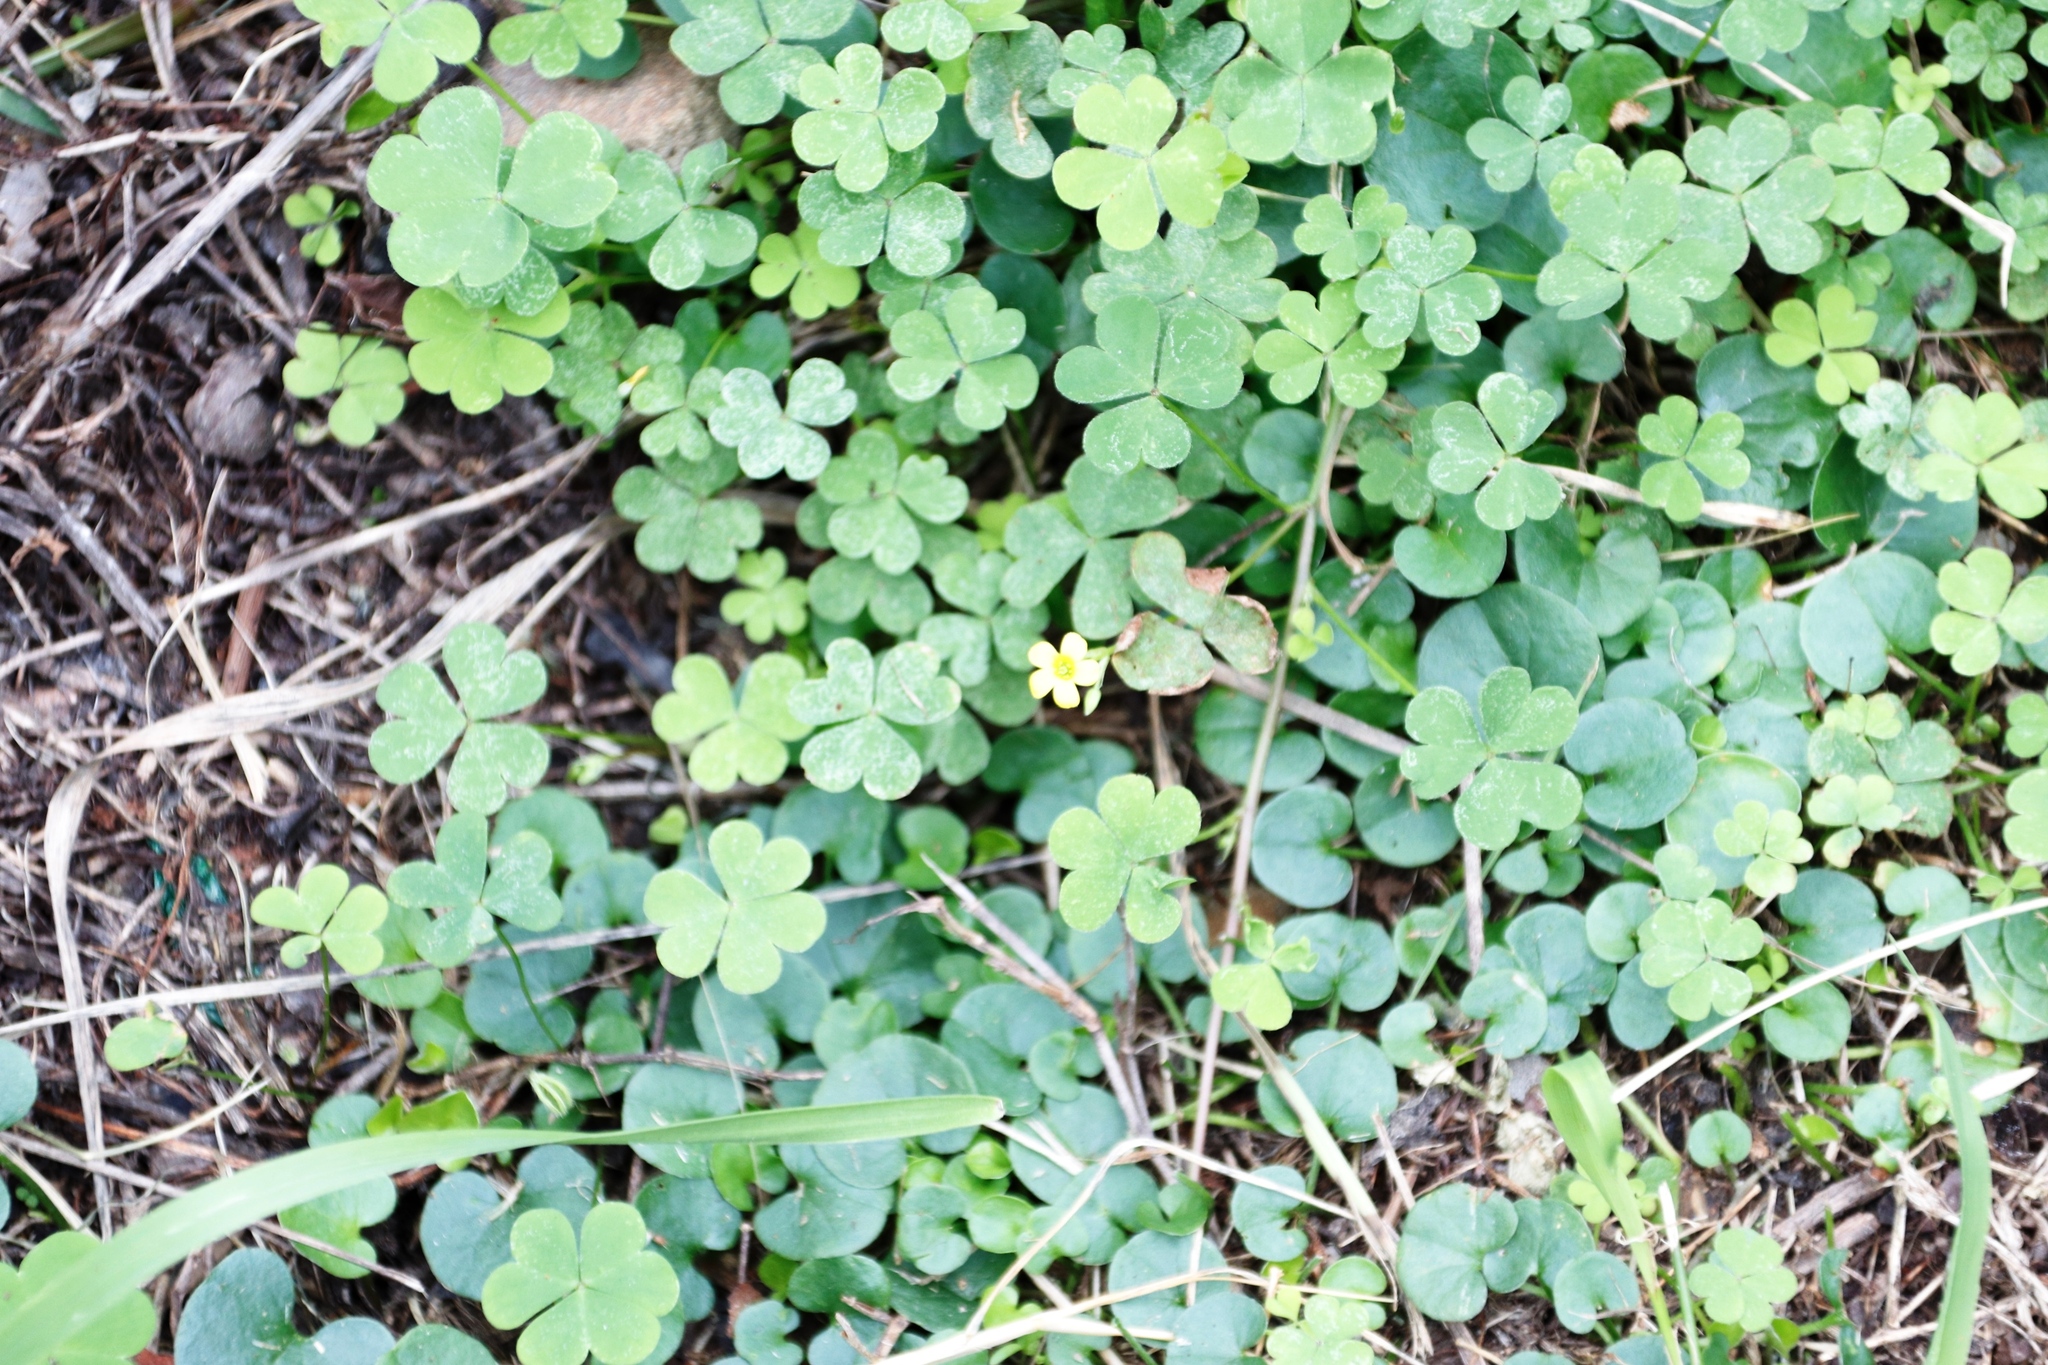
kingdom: Plantae
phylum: Tracheophyta
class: Magnoliopsida
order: Oxalidales
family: Oxalidaceae
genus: Oxalis
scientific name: Oxalis corniculata
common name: Procumbent yellow-sorrel
